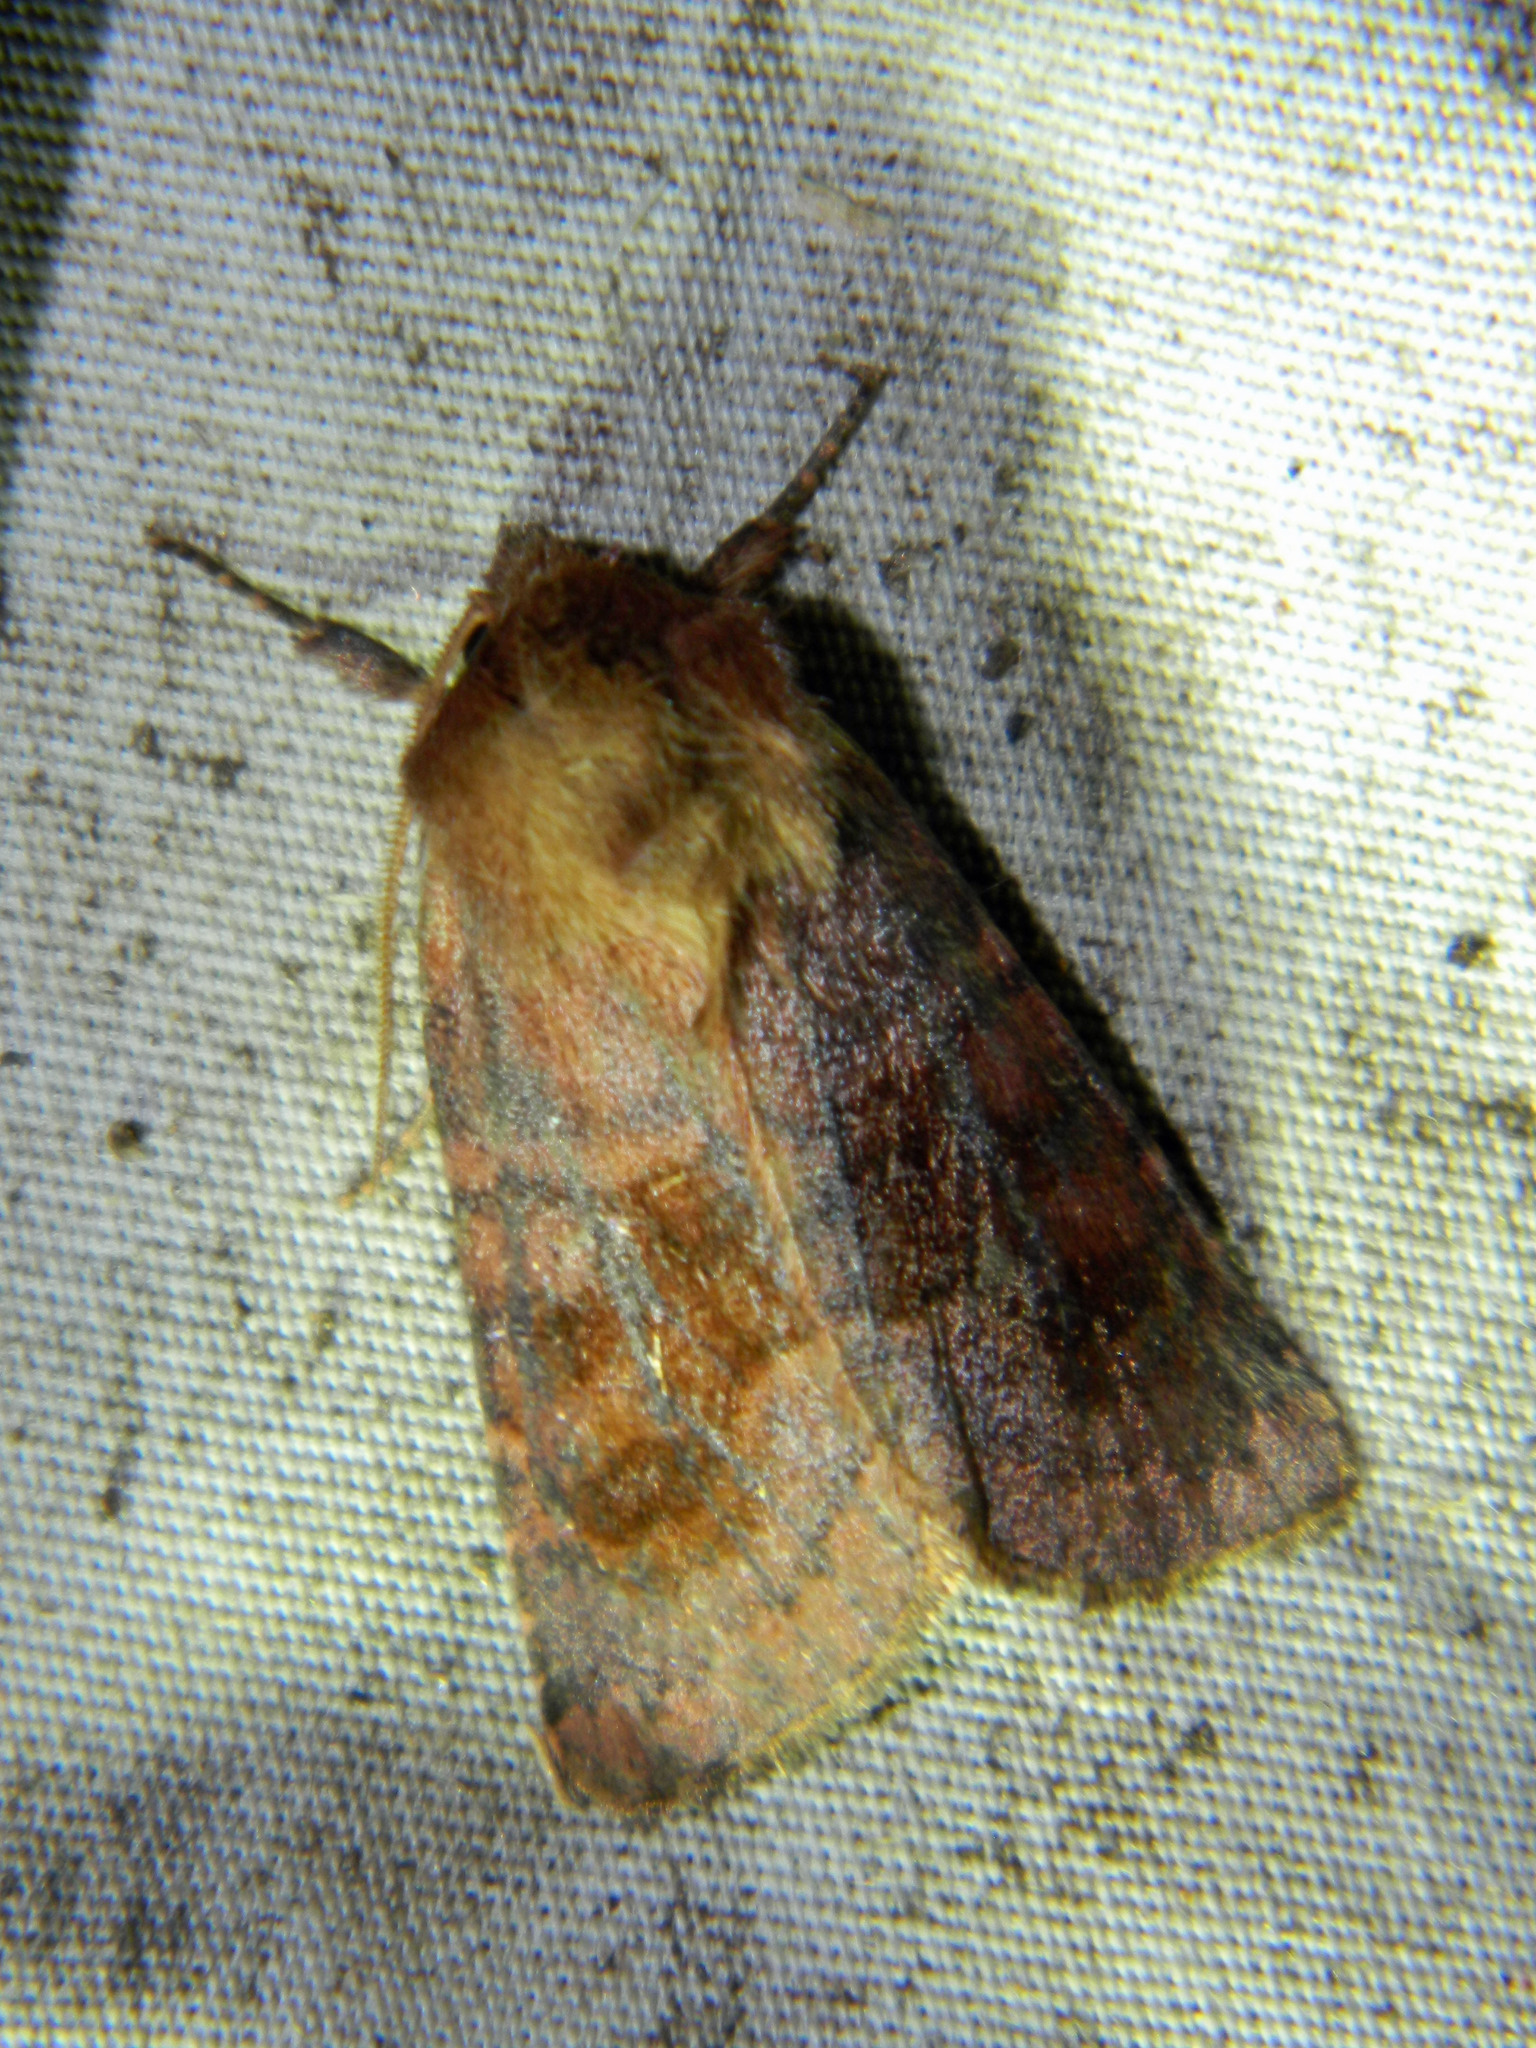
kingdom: Animalia
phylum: Arthropoda
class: Insecta
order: Lepidoptera
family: Noctuidae
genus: Nephelodes
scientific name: Nephelodes minians
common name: Bronzed cutworm
